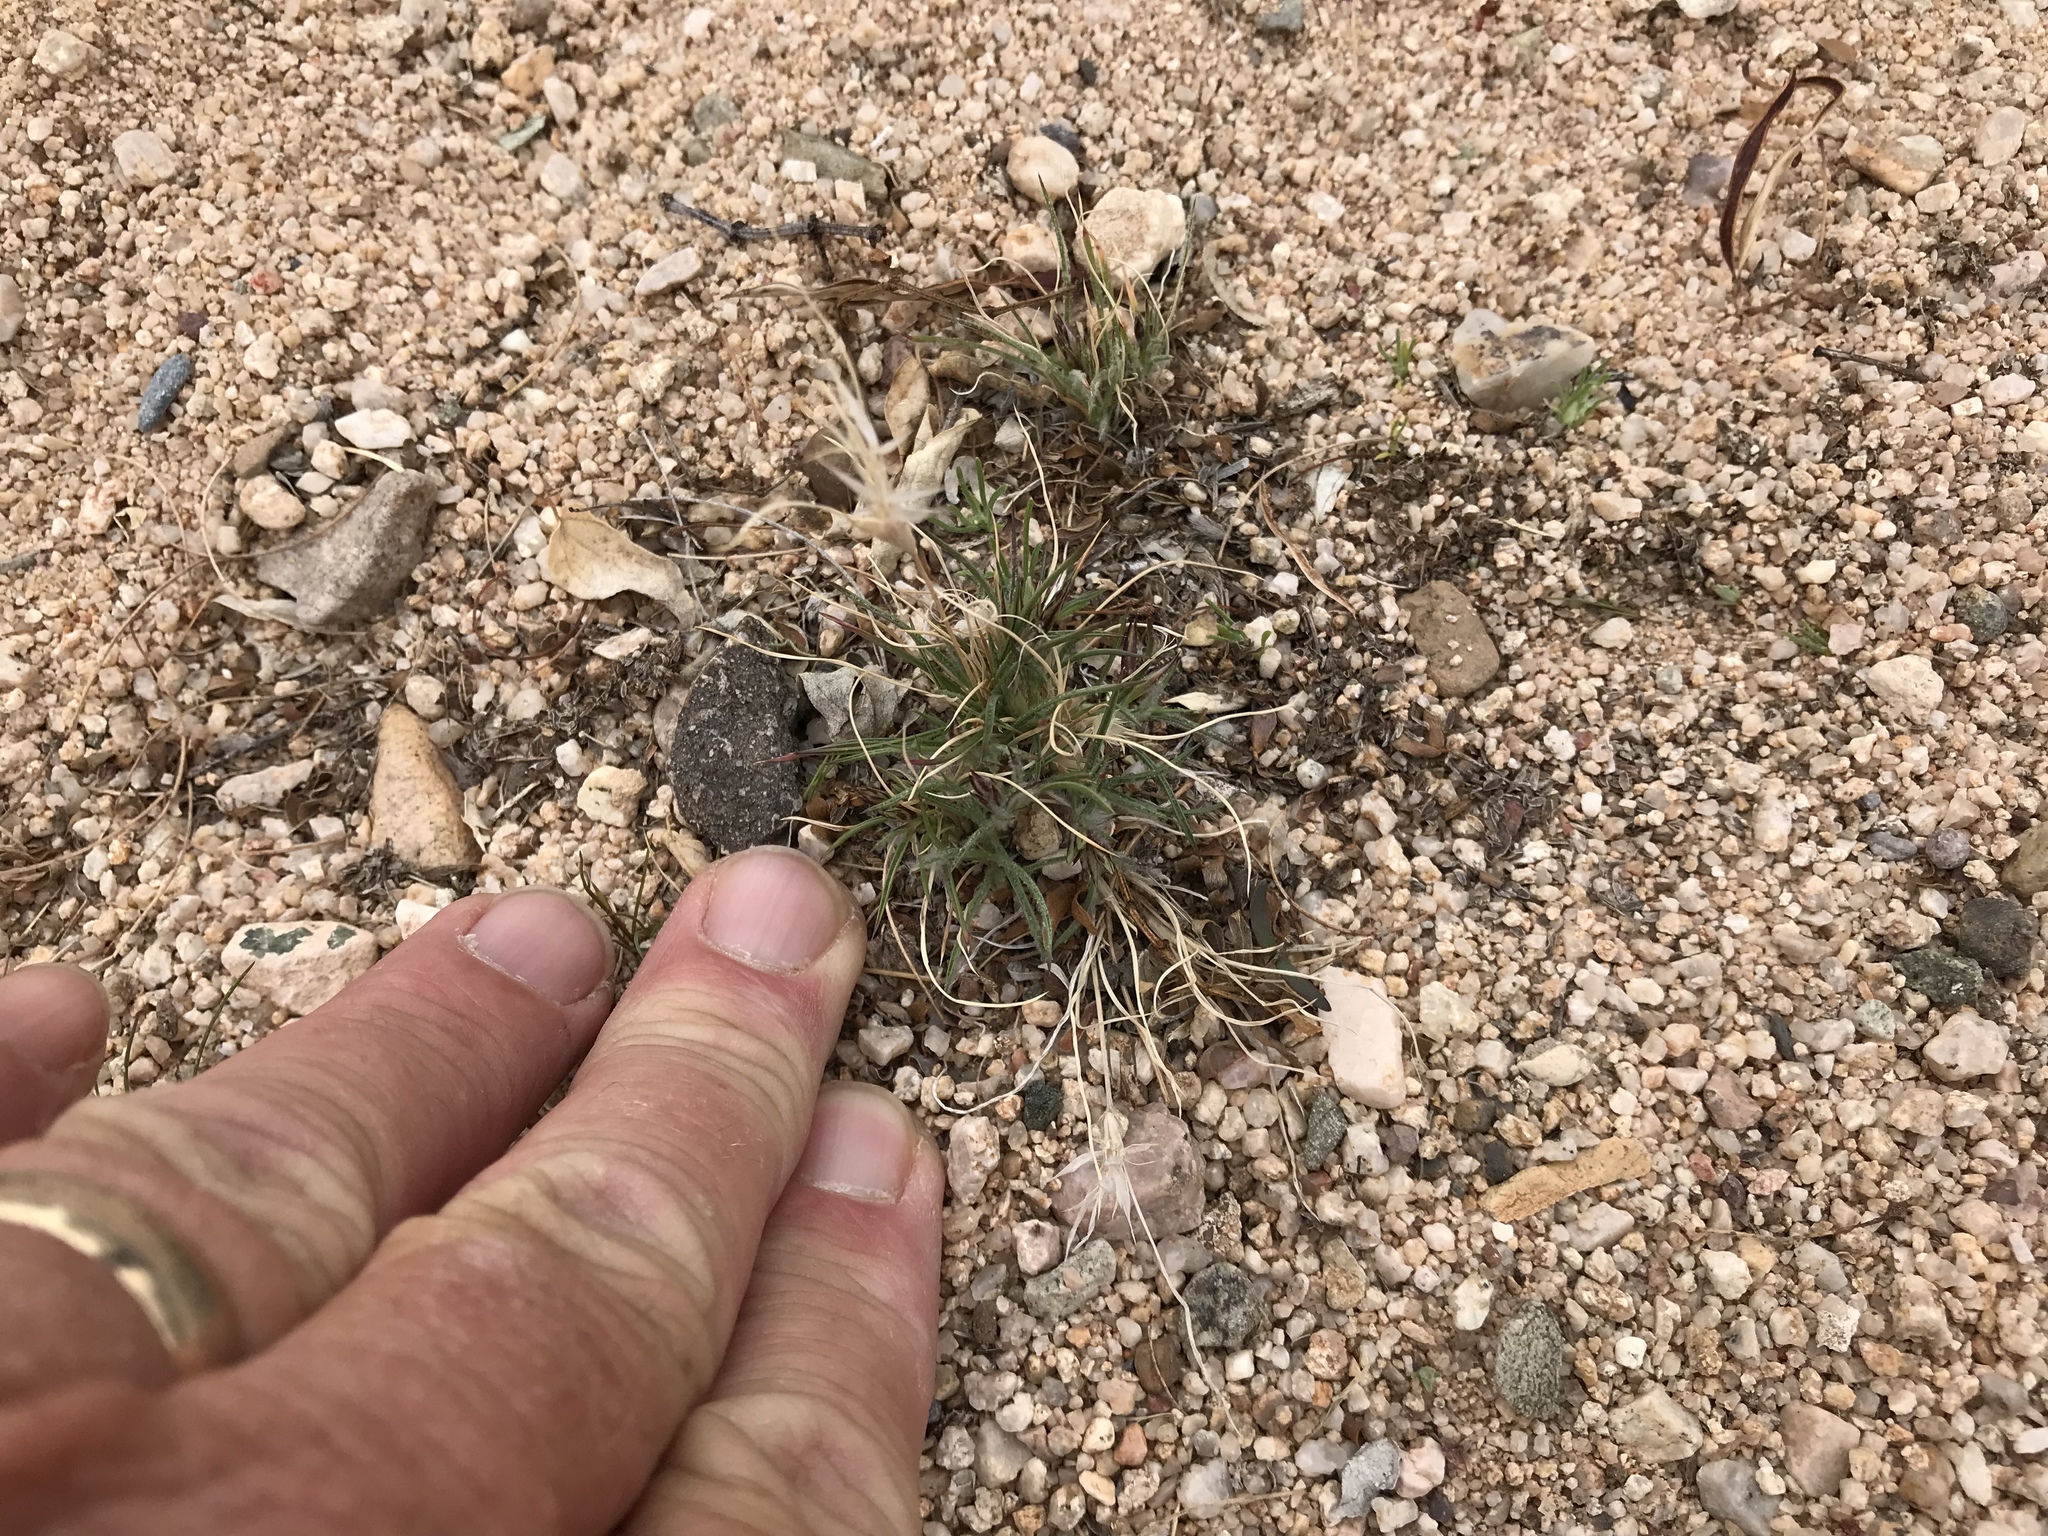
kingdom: Plantae
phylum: Tracheophyta
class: Liliopsida
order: Poales
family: Poaceae
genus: Dasyochloa
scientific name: Dasyochloa pulchella
